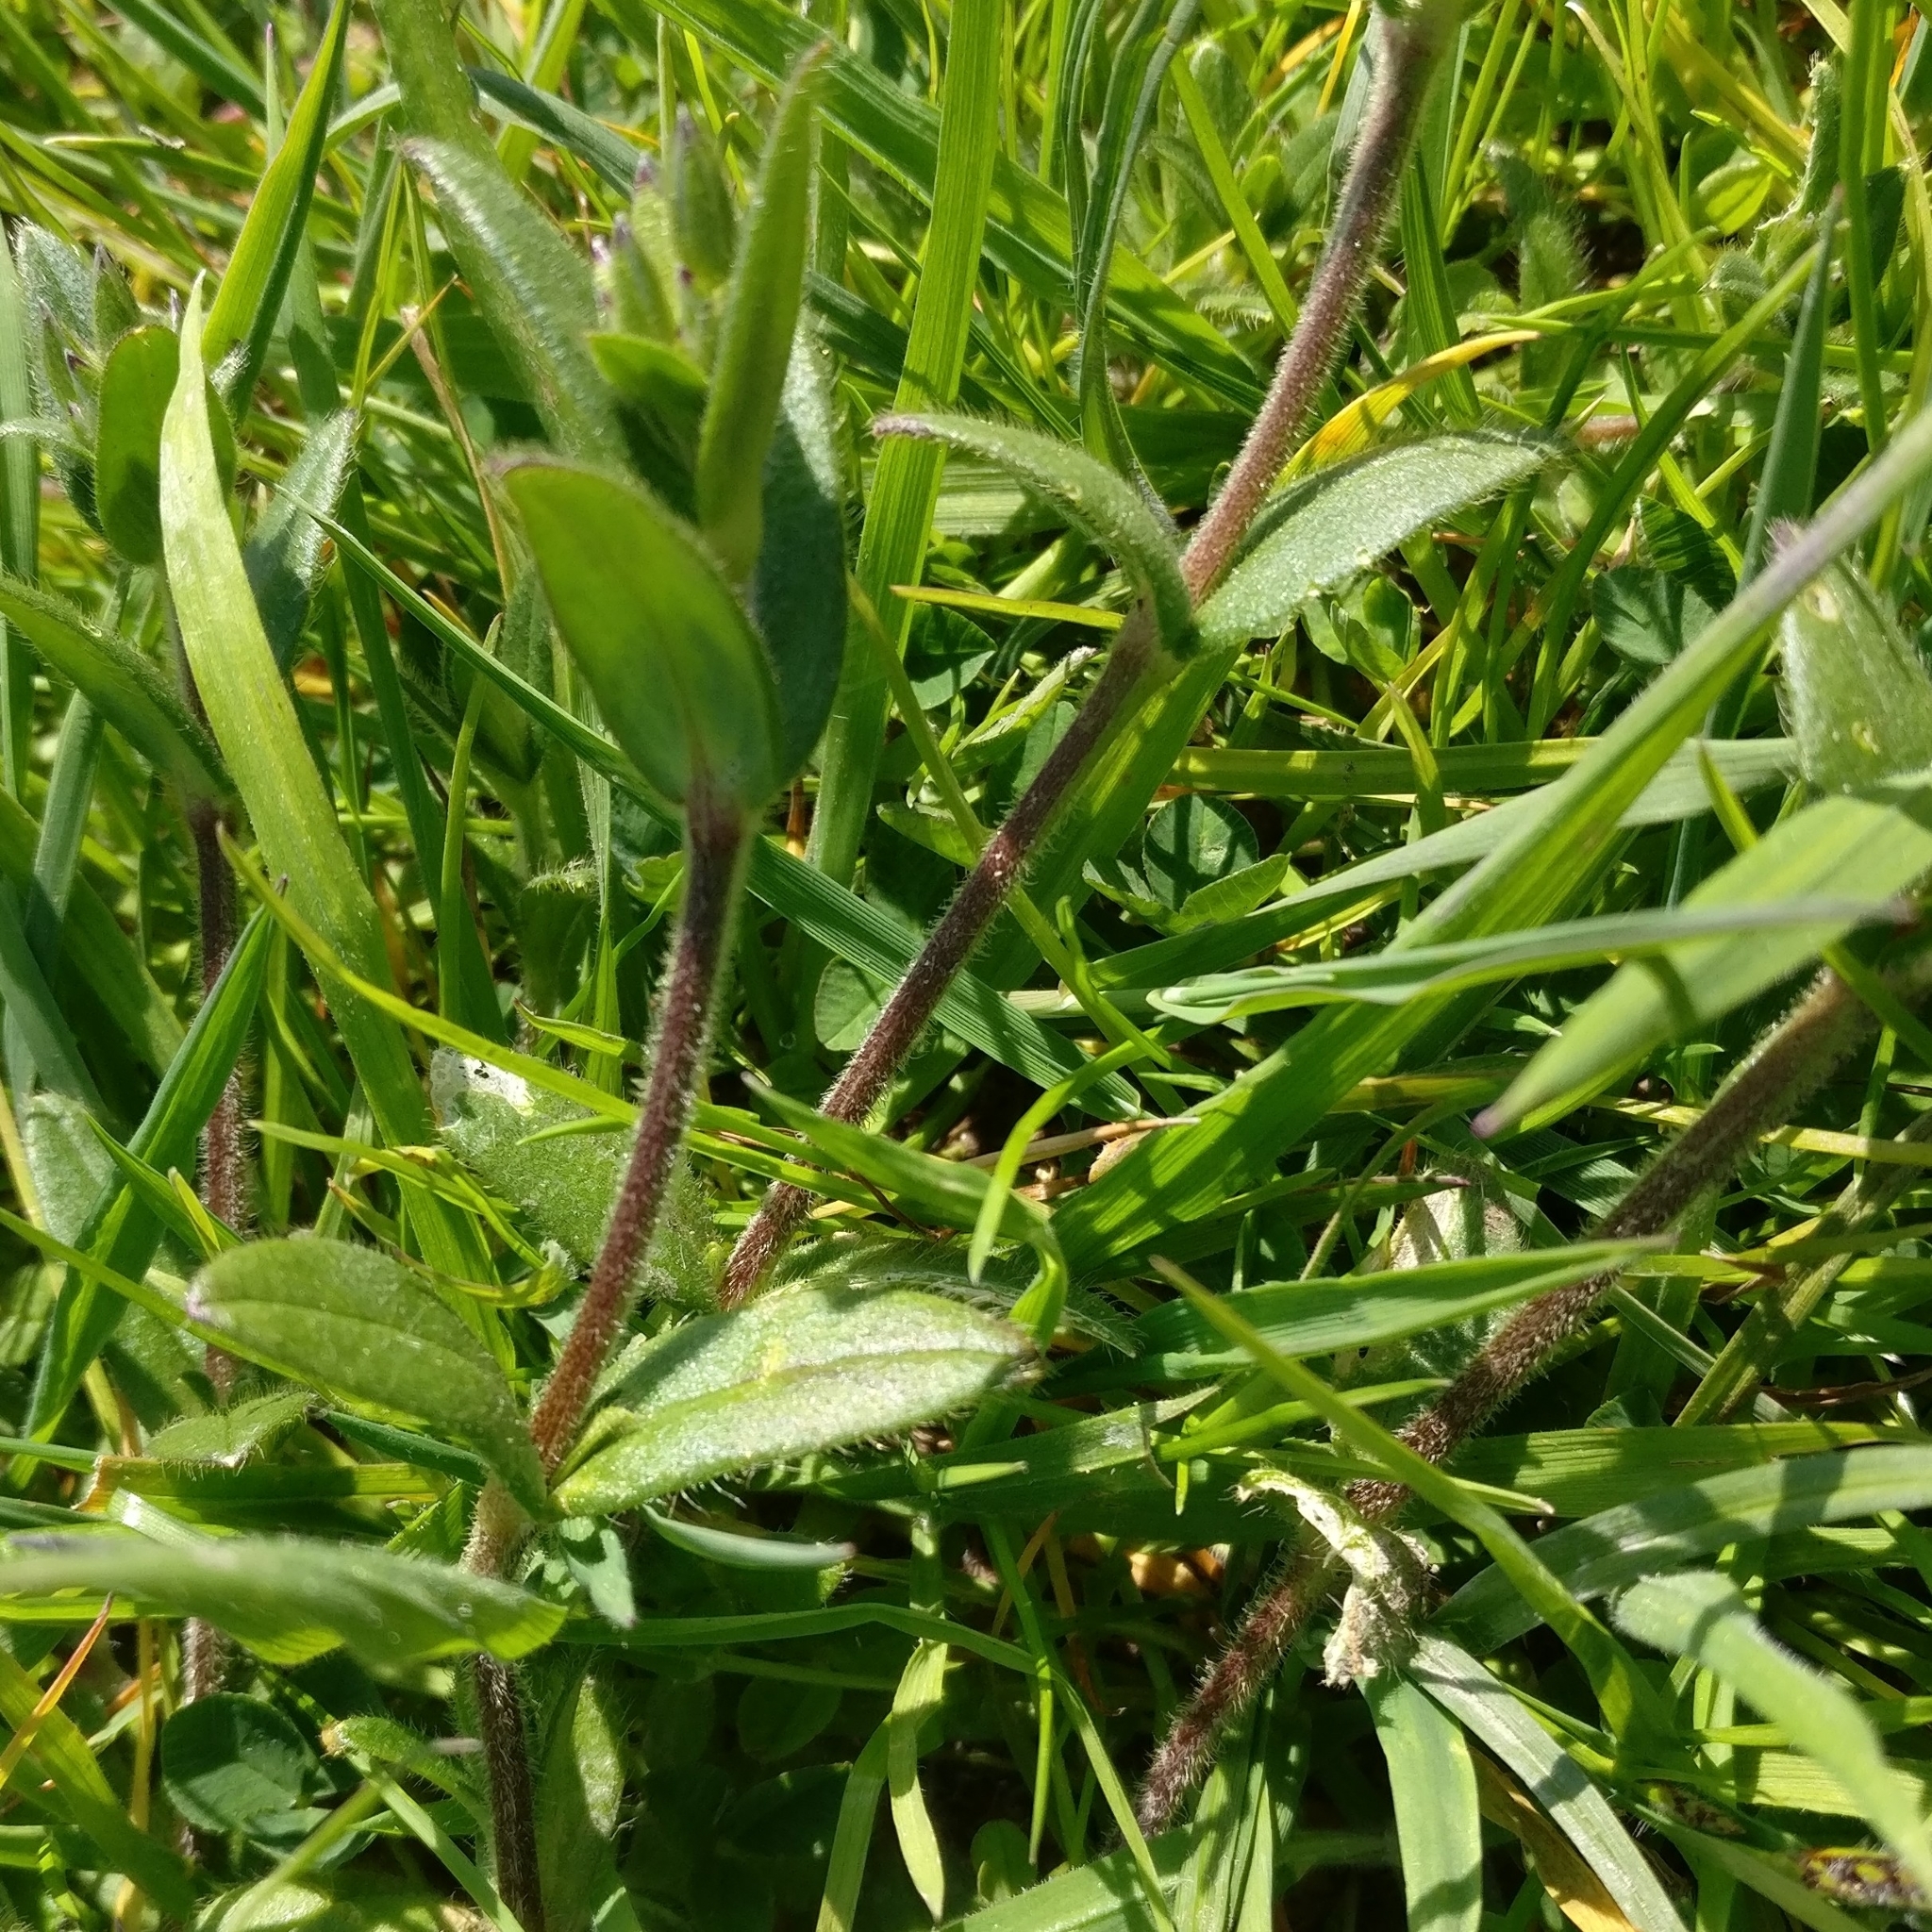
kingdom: Plantae
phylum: Tracheophyta
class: Magnoliopsida
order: Caryophyllales
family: Caryophyllaceae
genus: Cerastium
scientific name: Cerastium fontanum
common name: Common mouse-ear
